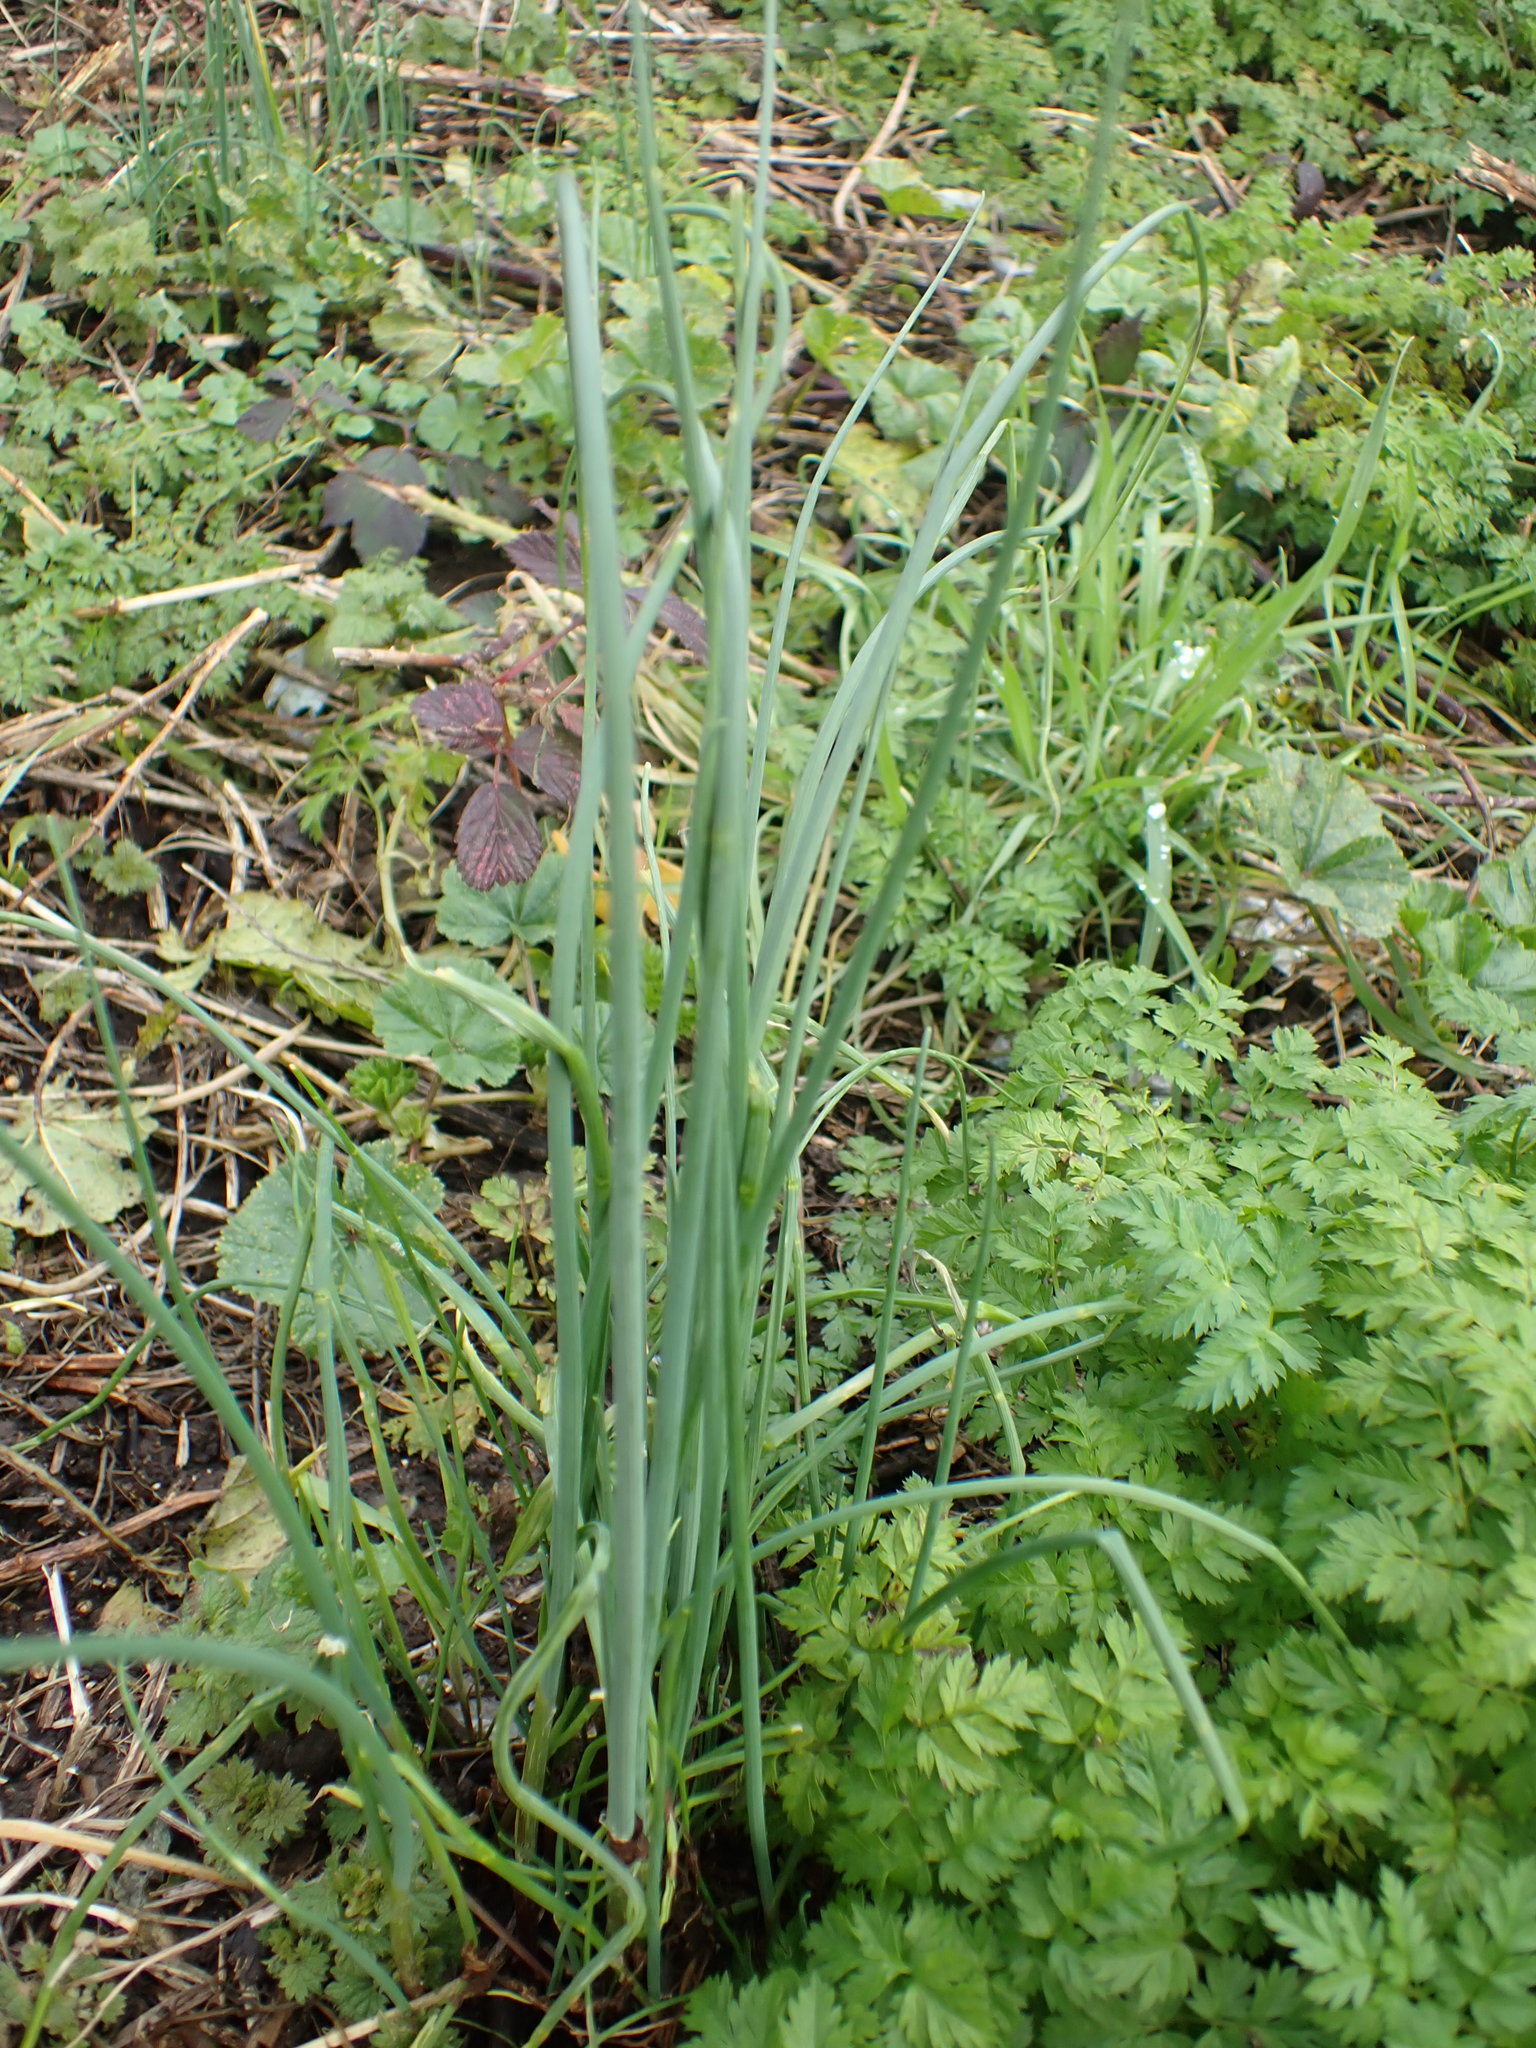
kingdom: Plantae
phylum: Tracheophyta
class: Liliopsida
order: Asparagales
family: Amaryllidaceae
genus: Allium
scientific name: Allium vineale
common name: Crow garlic
